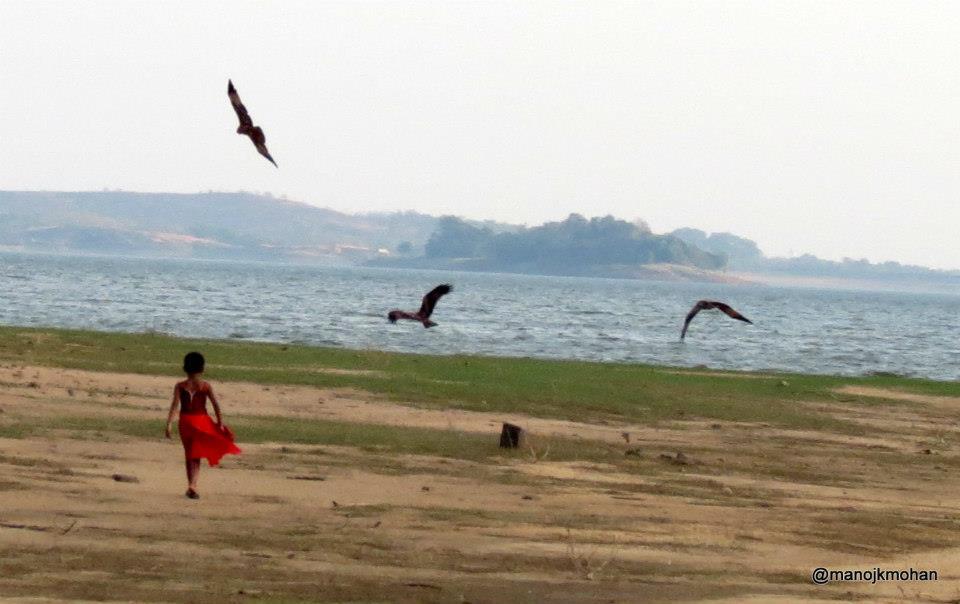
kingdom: Animalia
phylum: Chordata
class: Aves
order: Accipitriformes
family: Accipitridae
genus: Haliastur
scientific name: Haliastur indus
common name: Brahminy kite
